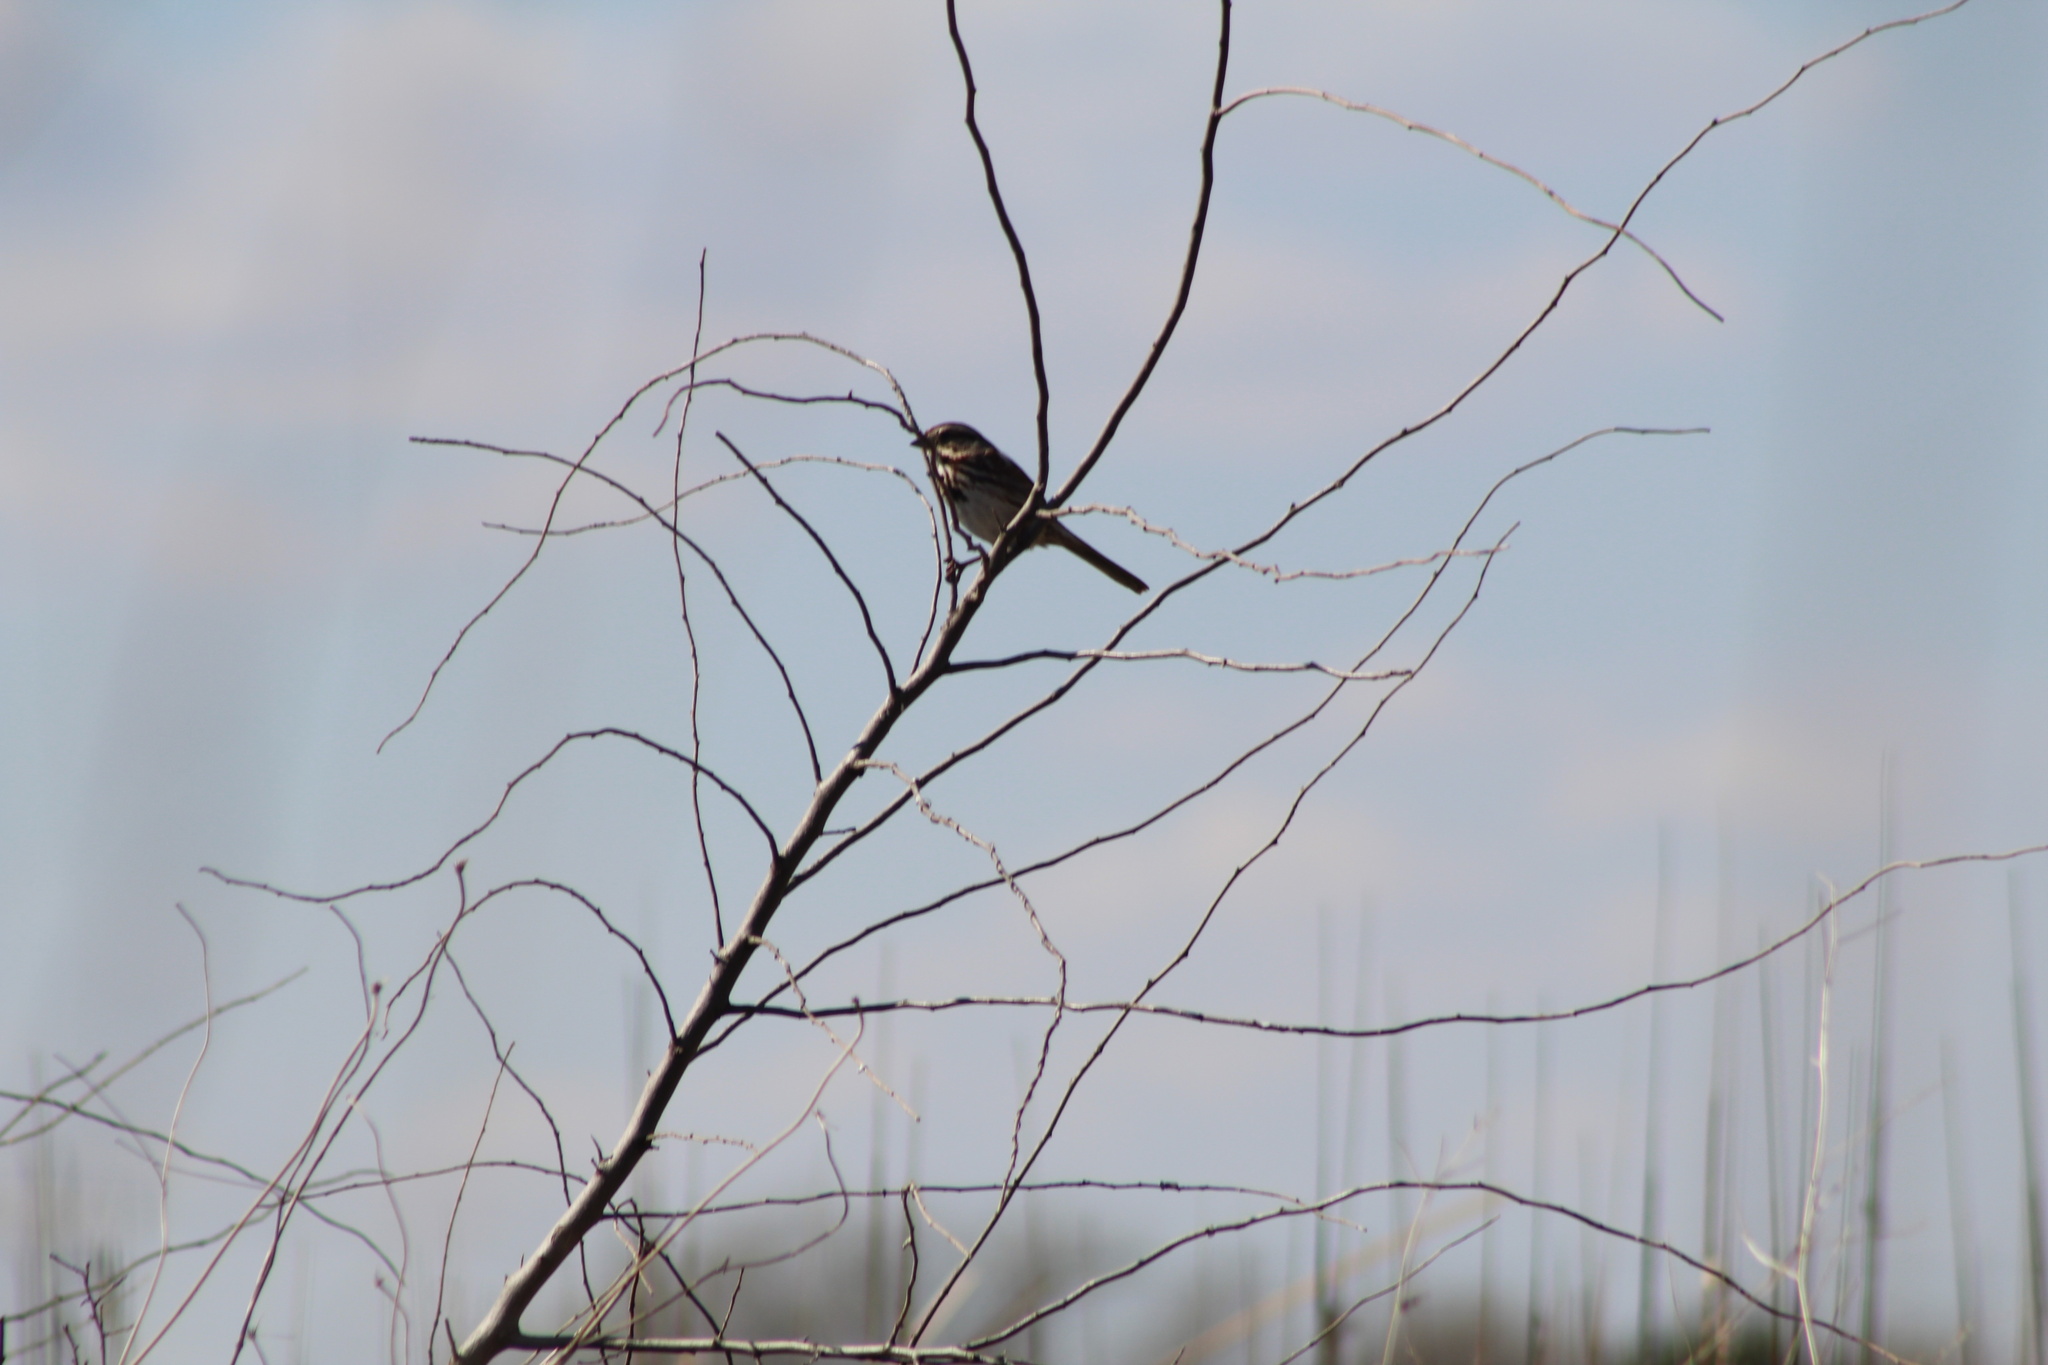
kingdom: Animalia
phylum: Chordata
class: Aves
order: Passeriformes
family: Passerellidae
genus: Melospiza
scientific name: Melospiza melodia
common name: Song sparrow
